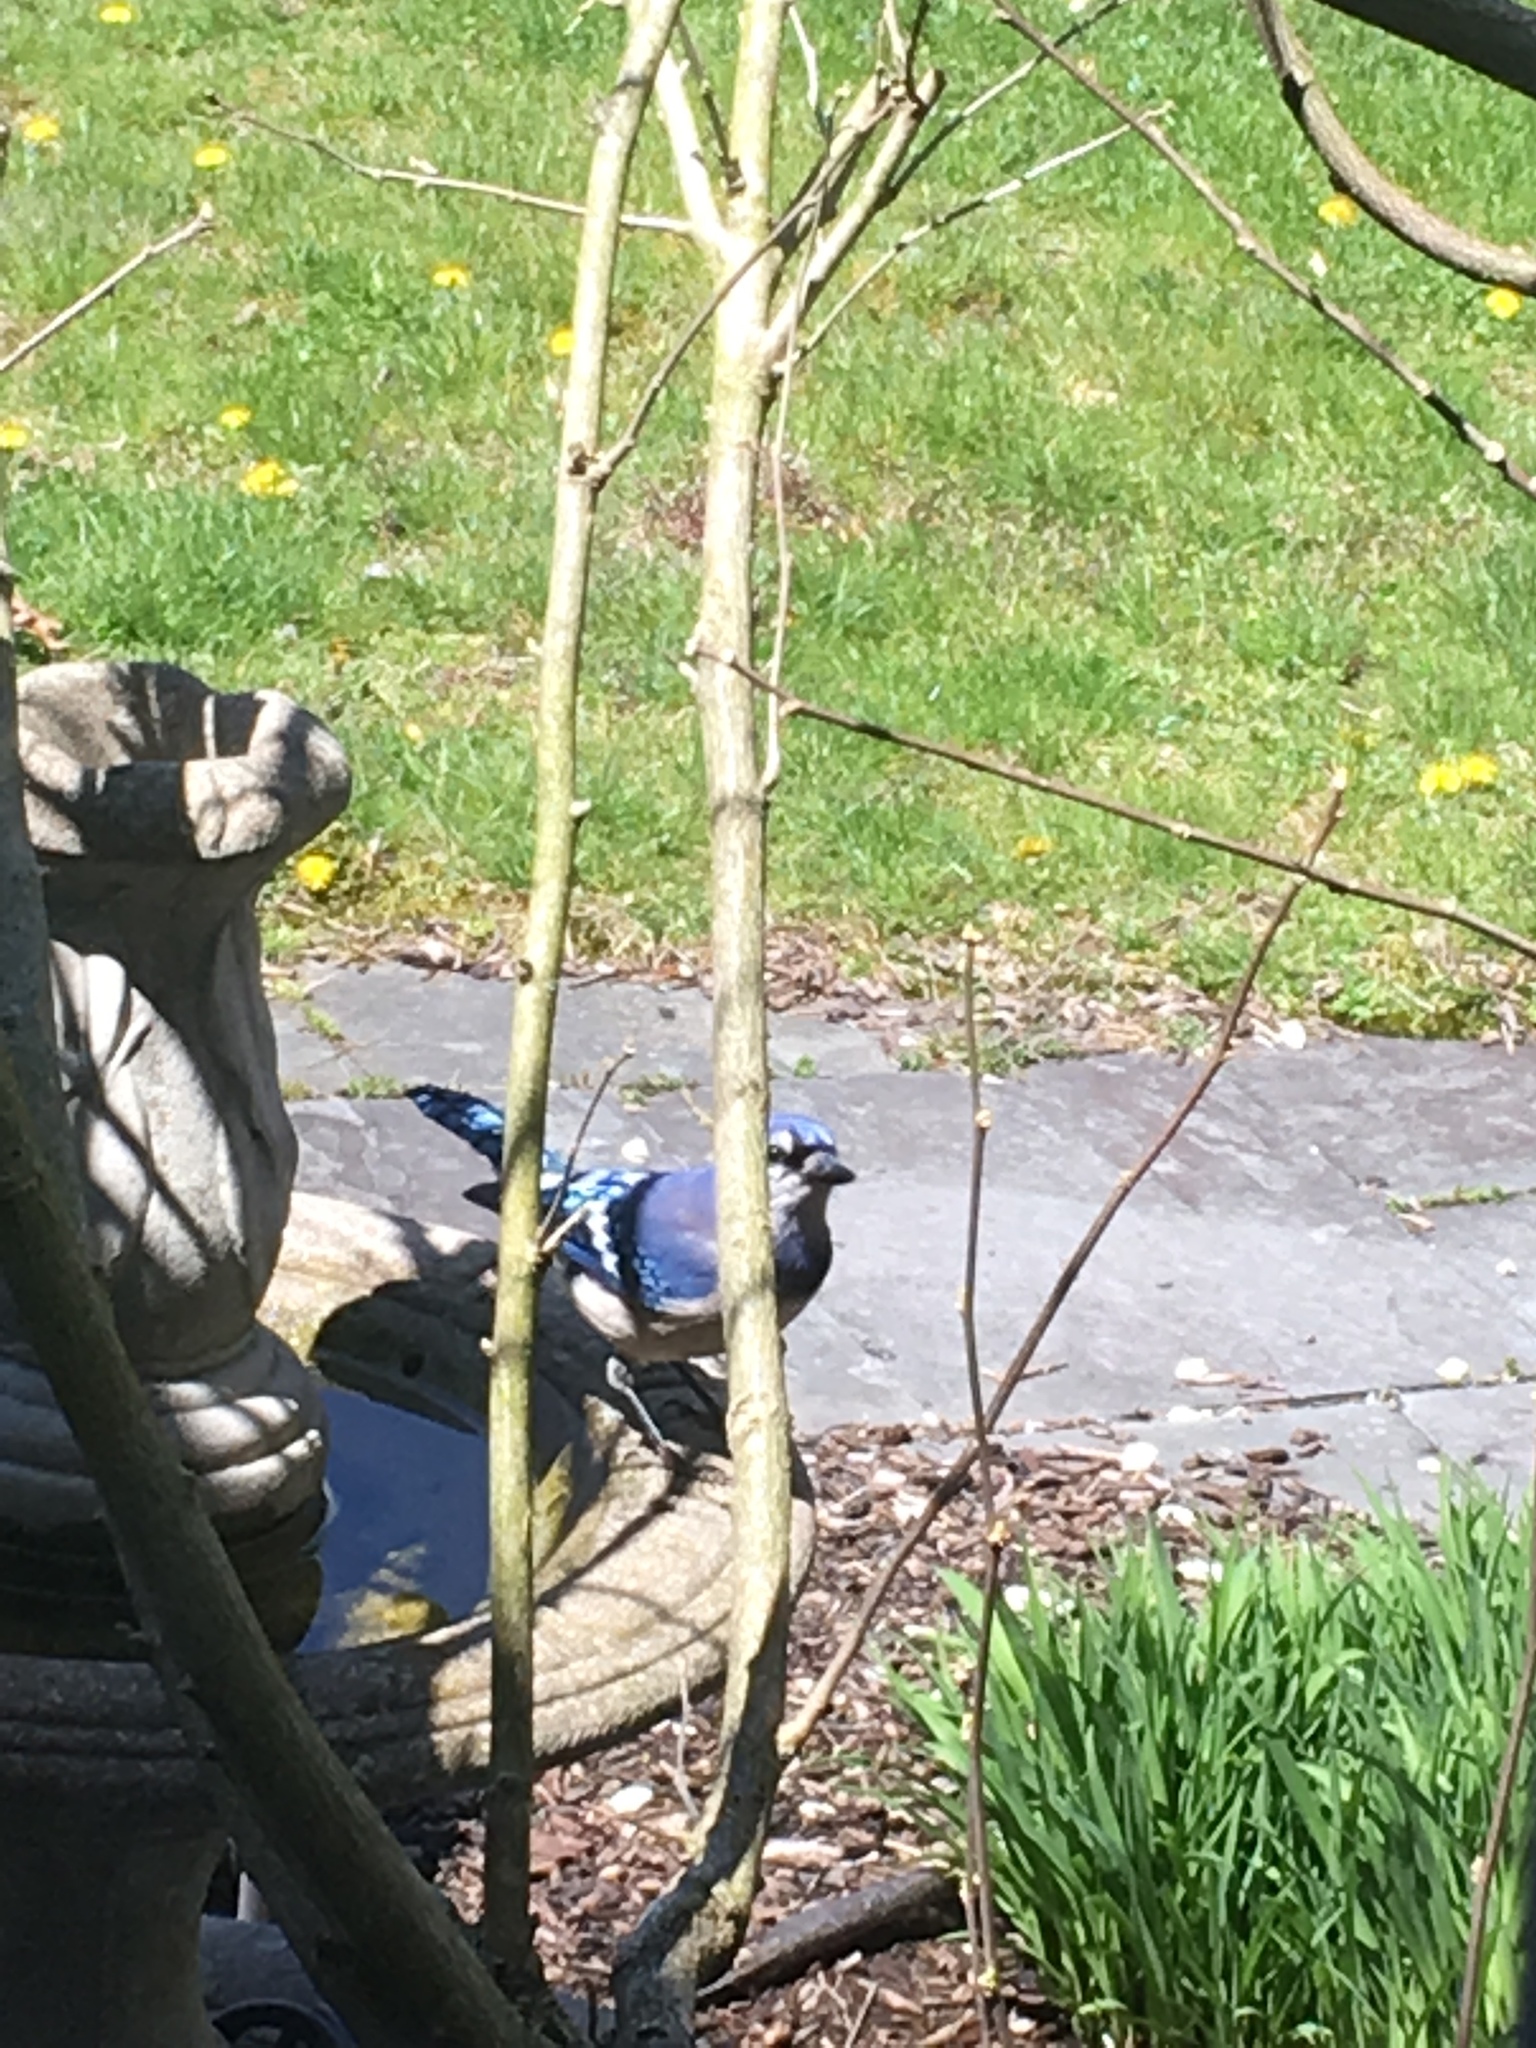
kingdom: Animalia
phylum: Chordata
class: Aves
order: Passeriformes
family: Corvidae
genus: Cyanocitta
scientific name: Cyanocitta cristata
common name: Blue jay
